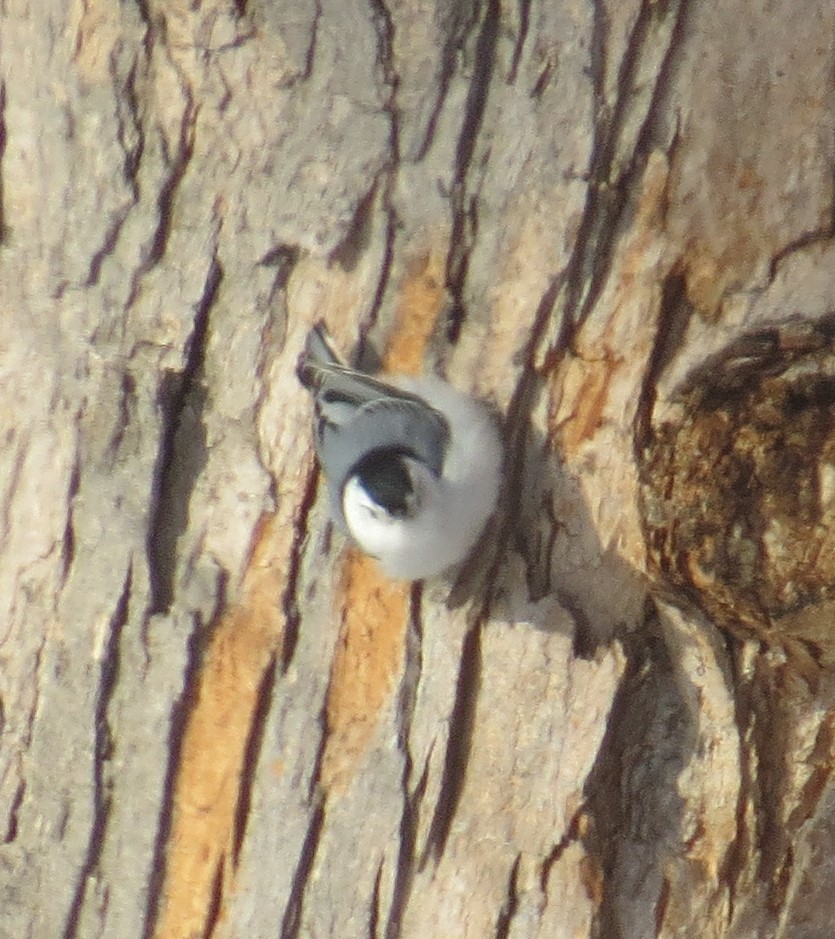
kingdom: Animalia
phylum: Chordata
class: Aves
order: Passeriformes
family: Sittidae
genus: Sitta
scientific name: Sitta carolinensis
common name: White-breasted nuthatch
